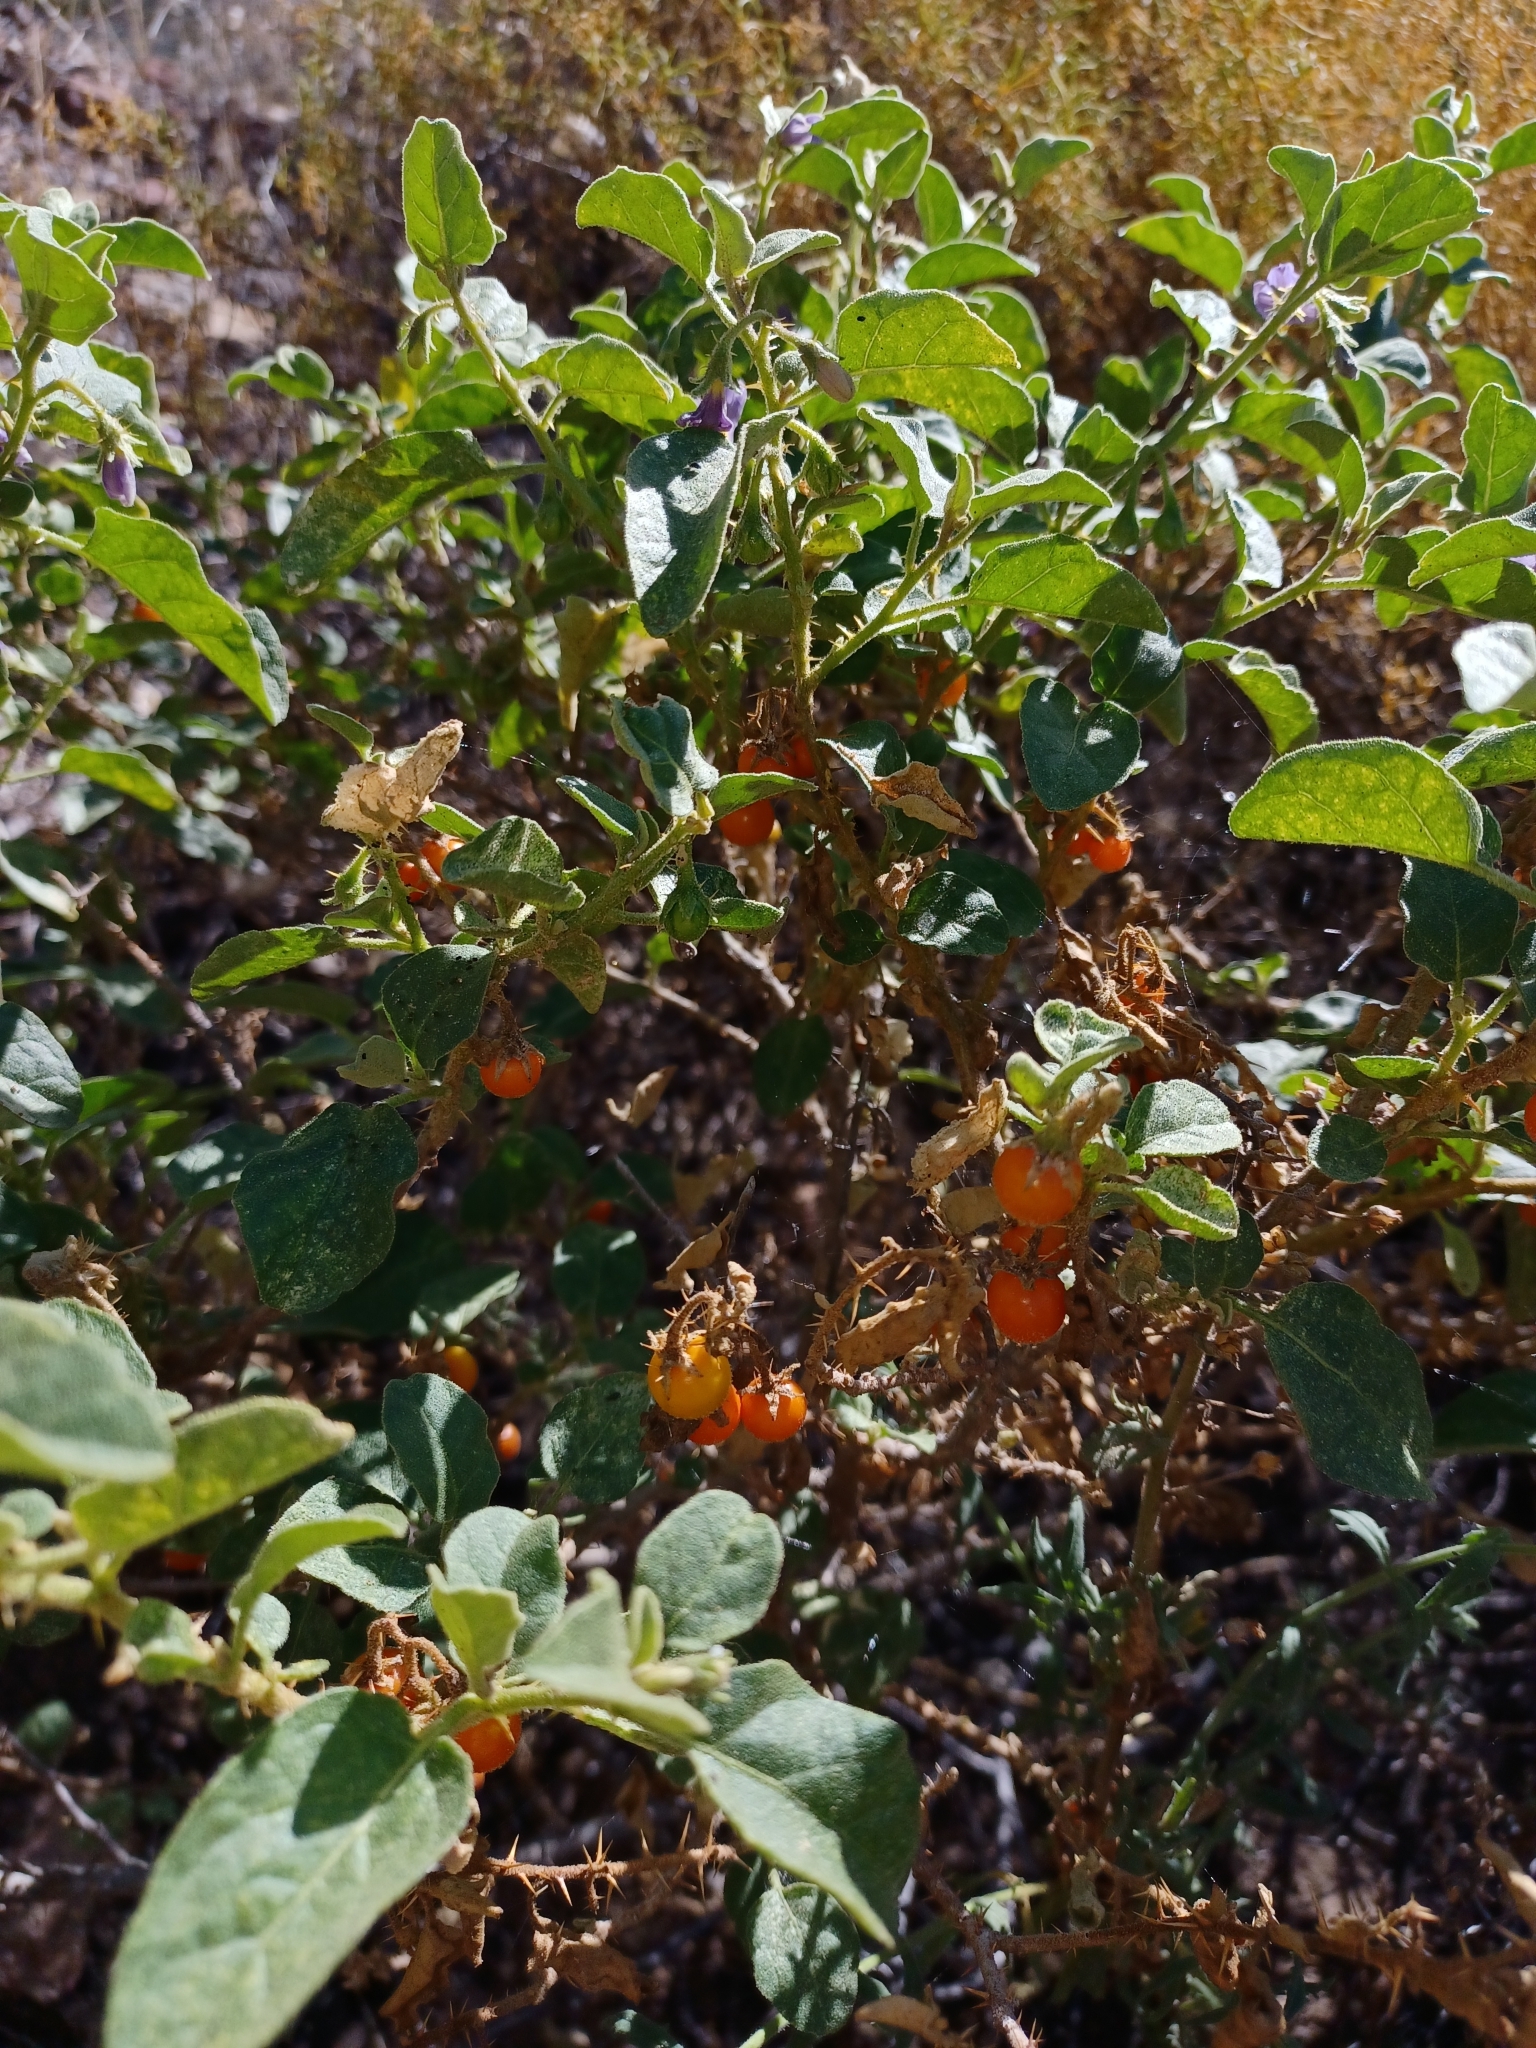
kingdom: Plantae
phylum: Tracheophyta
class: Magnoliopsida
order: Solanales
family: Solanaceae
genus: Solanum
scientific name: Solanum tomentosum
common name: Wild aubergine
